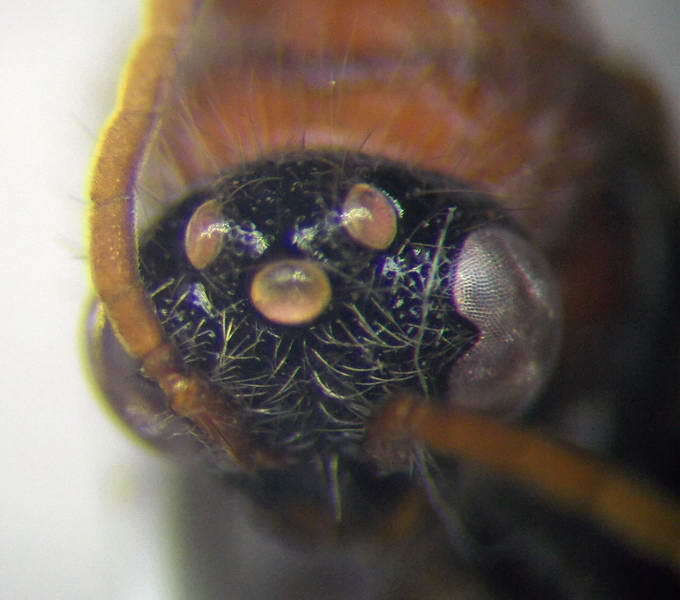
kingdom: Animalia
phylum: Arthropoda
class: Insecta
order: Hymenoptera
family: Mutillidae
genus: Smicromyrme
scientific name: Smicromyrme rufipes
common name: Small velvet ant
